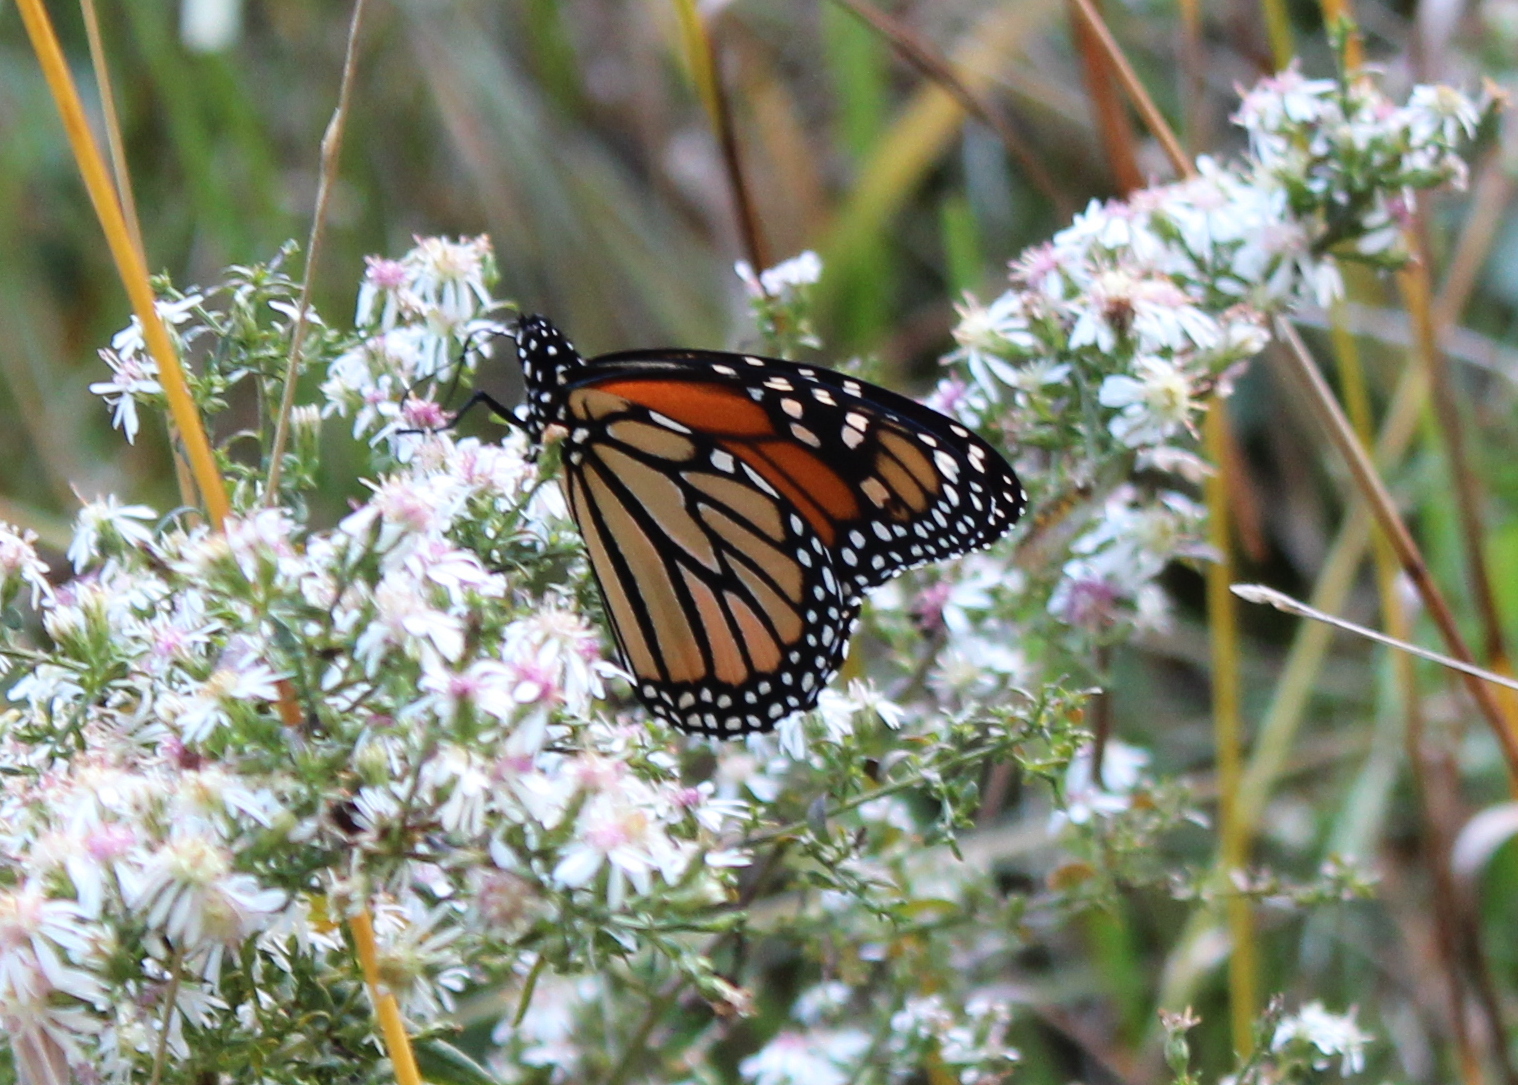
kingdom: Animalia
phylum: Arthropoda
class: Insecta
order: Lepidoptera
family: Nymphalidae
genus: Danaus
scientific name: Danaus plexippus
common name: Monarch
